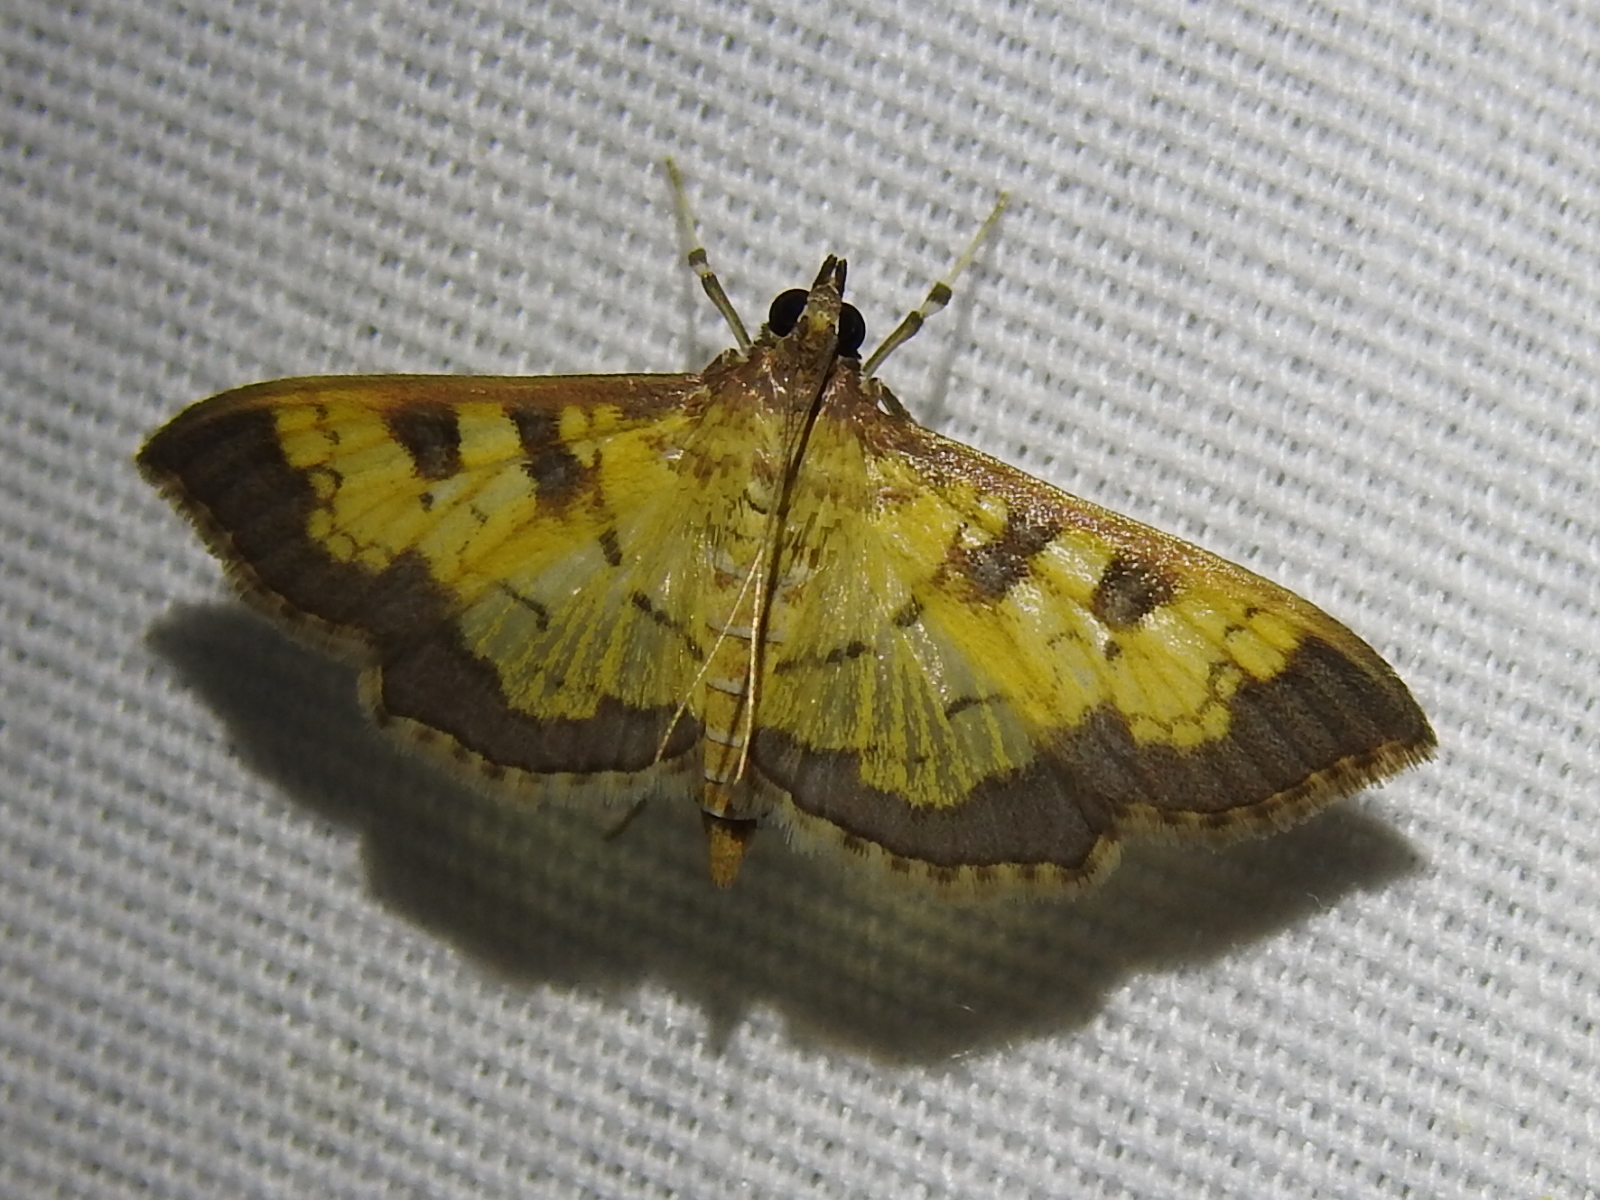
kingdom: Animalia
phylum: Arthropoda
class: Insecta
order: Lepidoptera
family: Crambidae
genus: Cryptographis
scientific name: Cryptographis elealis
